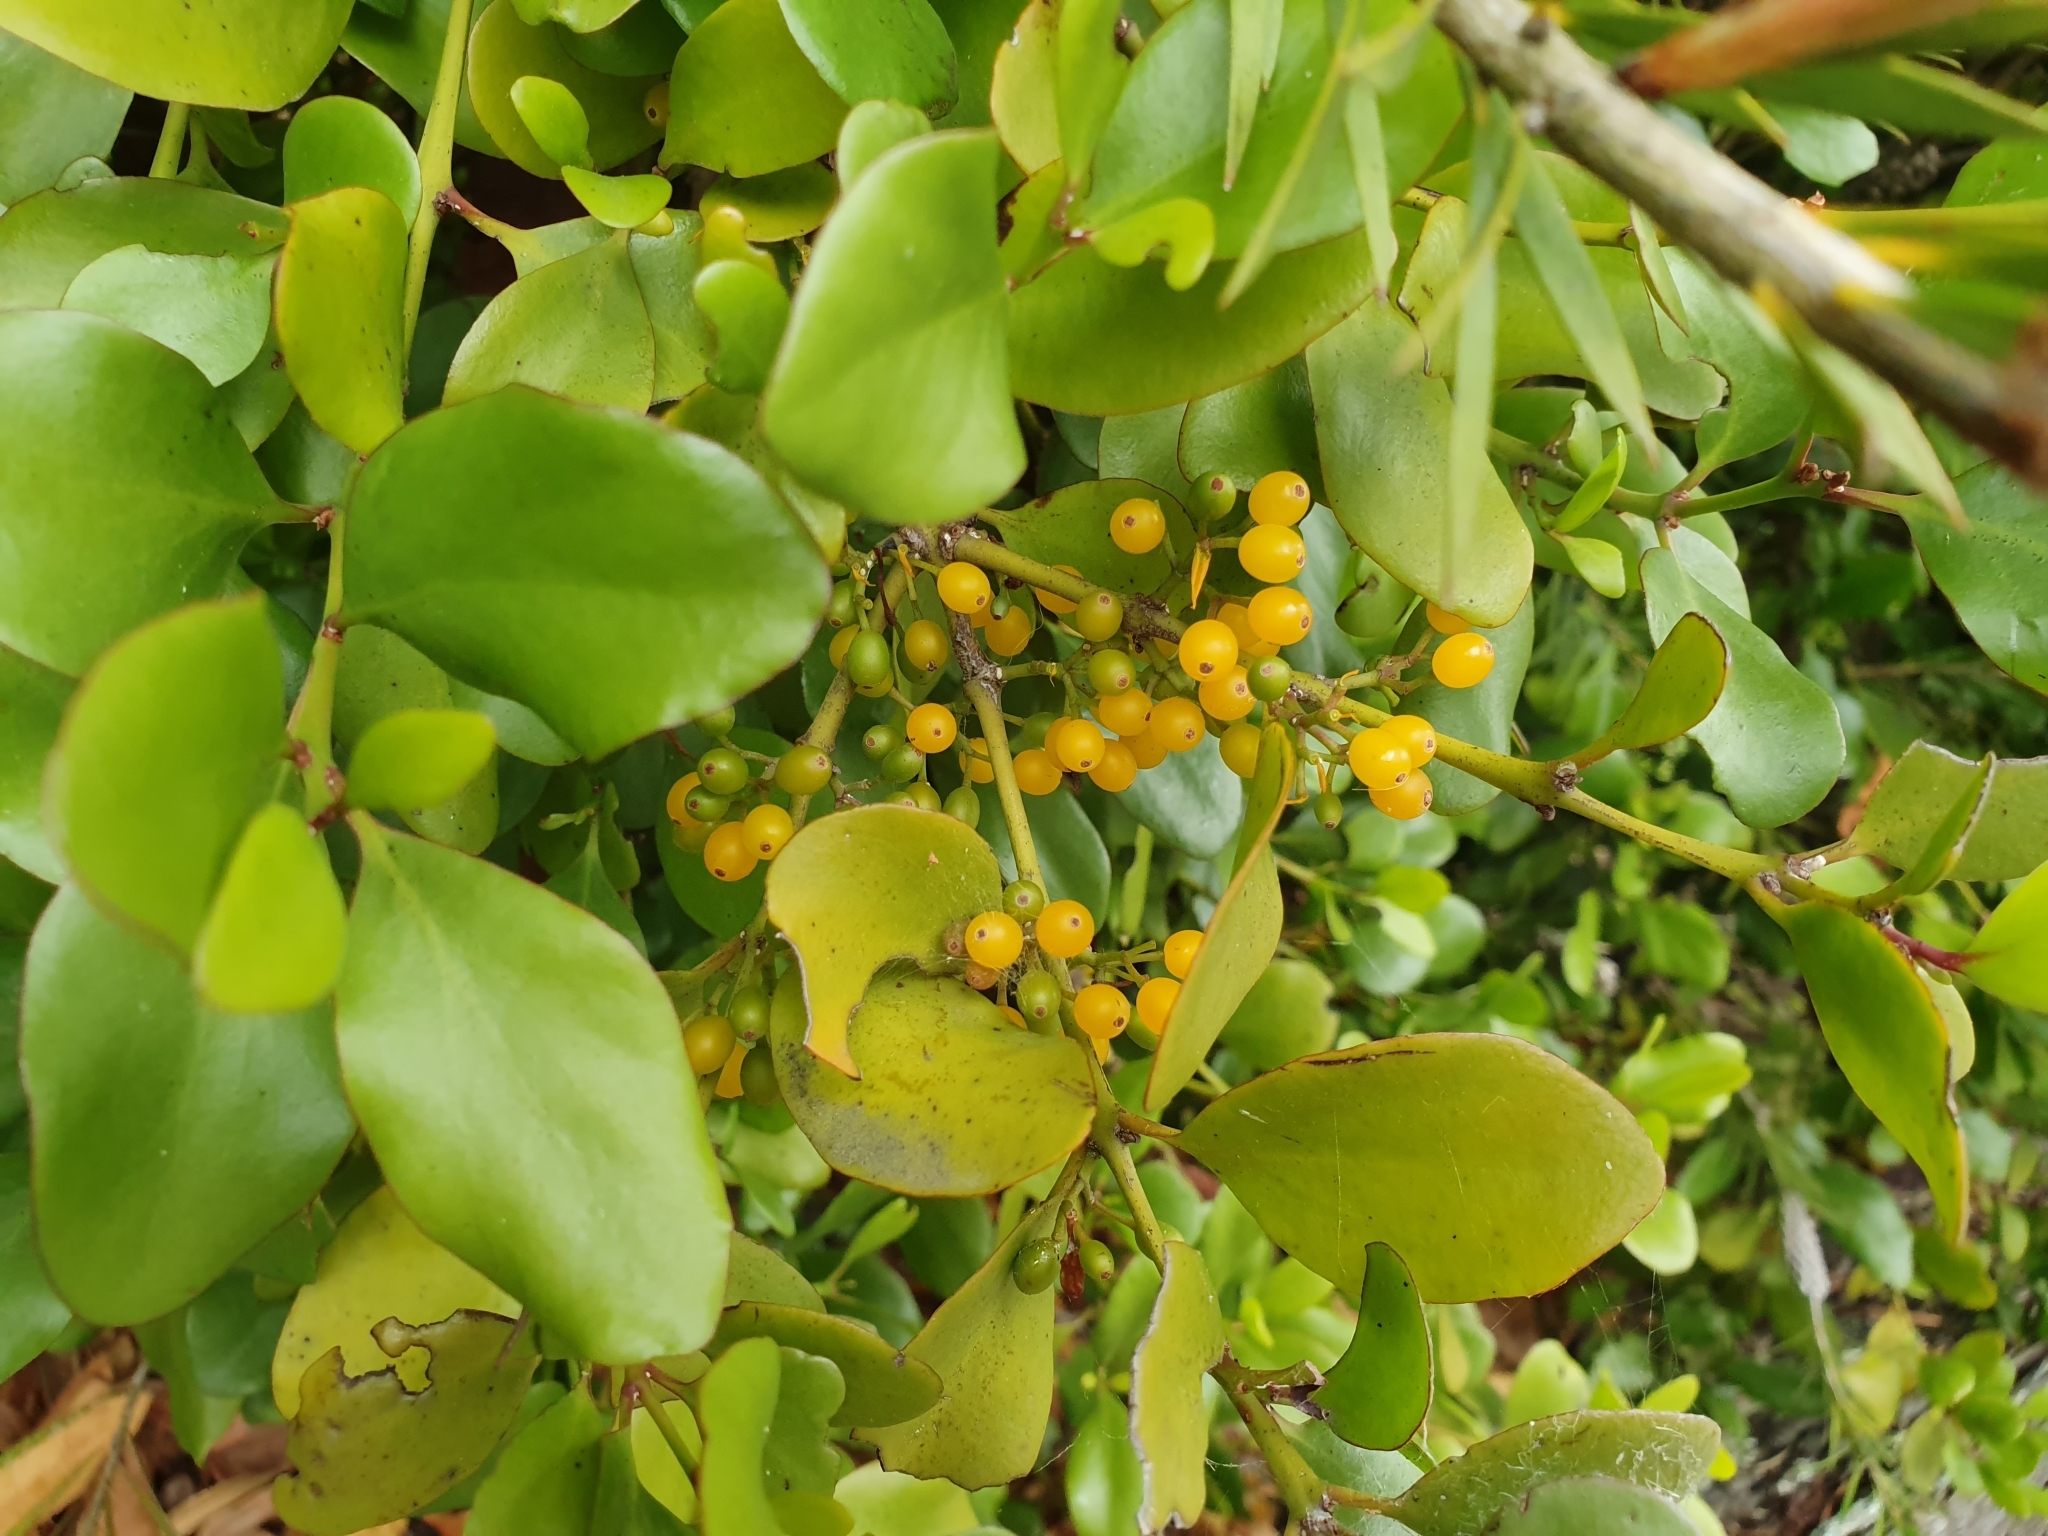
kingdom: Plantae
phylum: Tracheophyta
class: Magnoliopsida
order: Santalales
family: Loranthaceae
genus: Ileostylus
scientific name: Ileostylus micranthus
